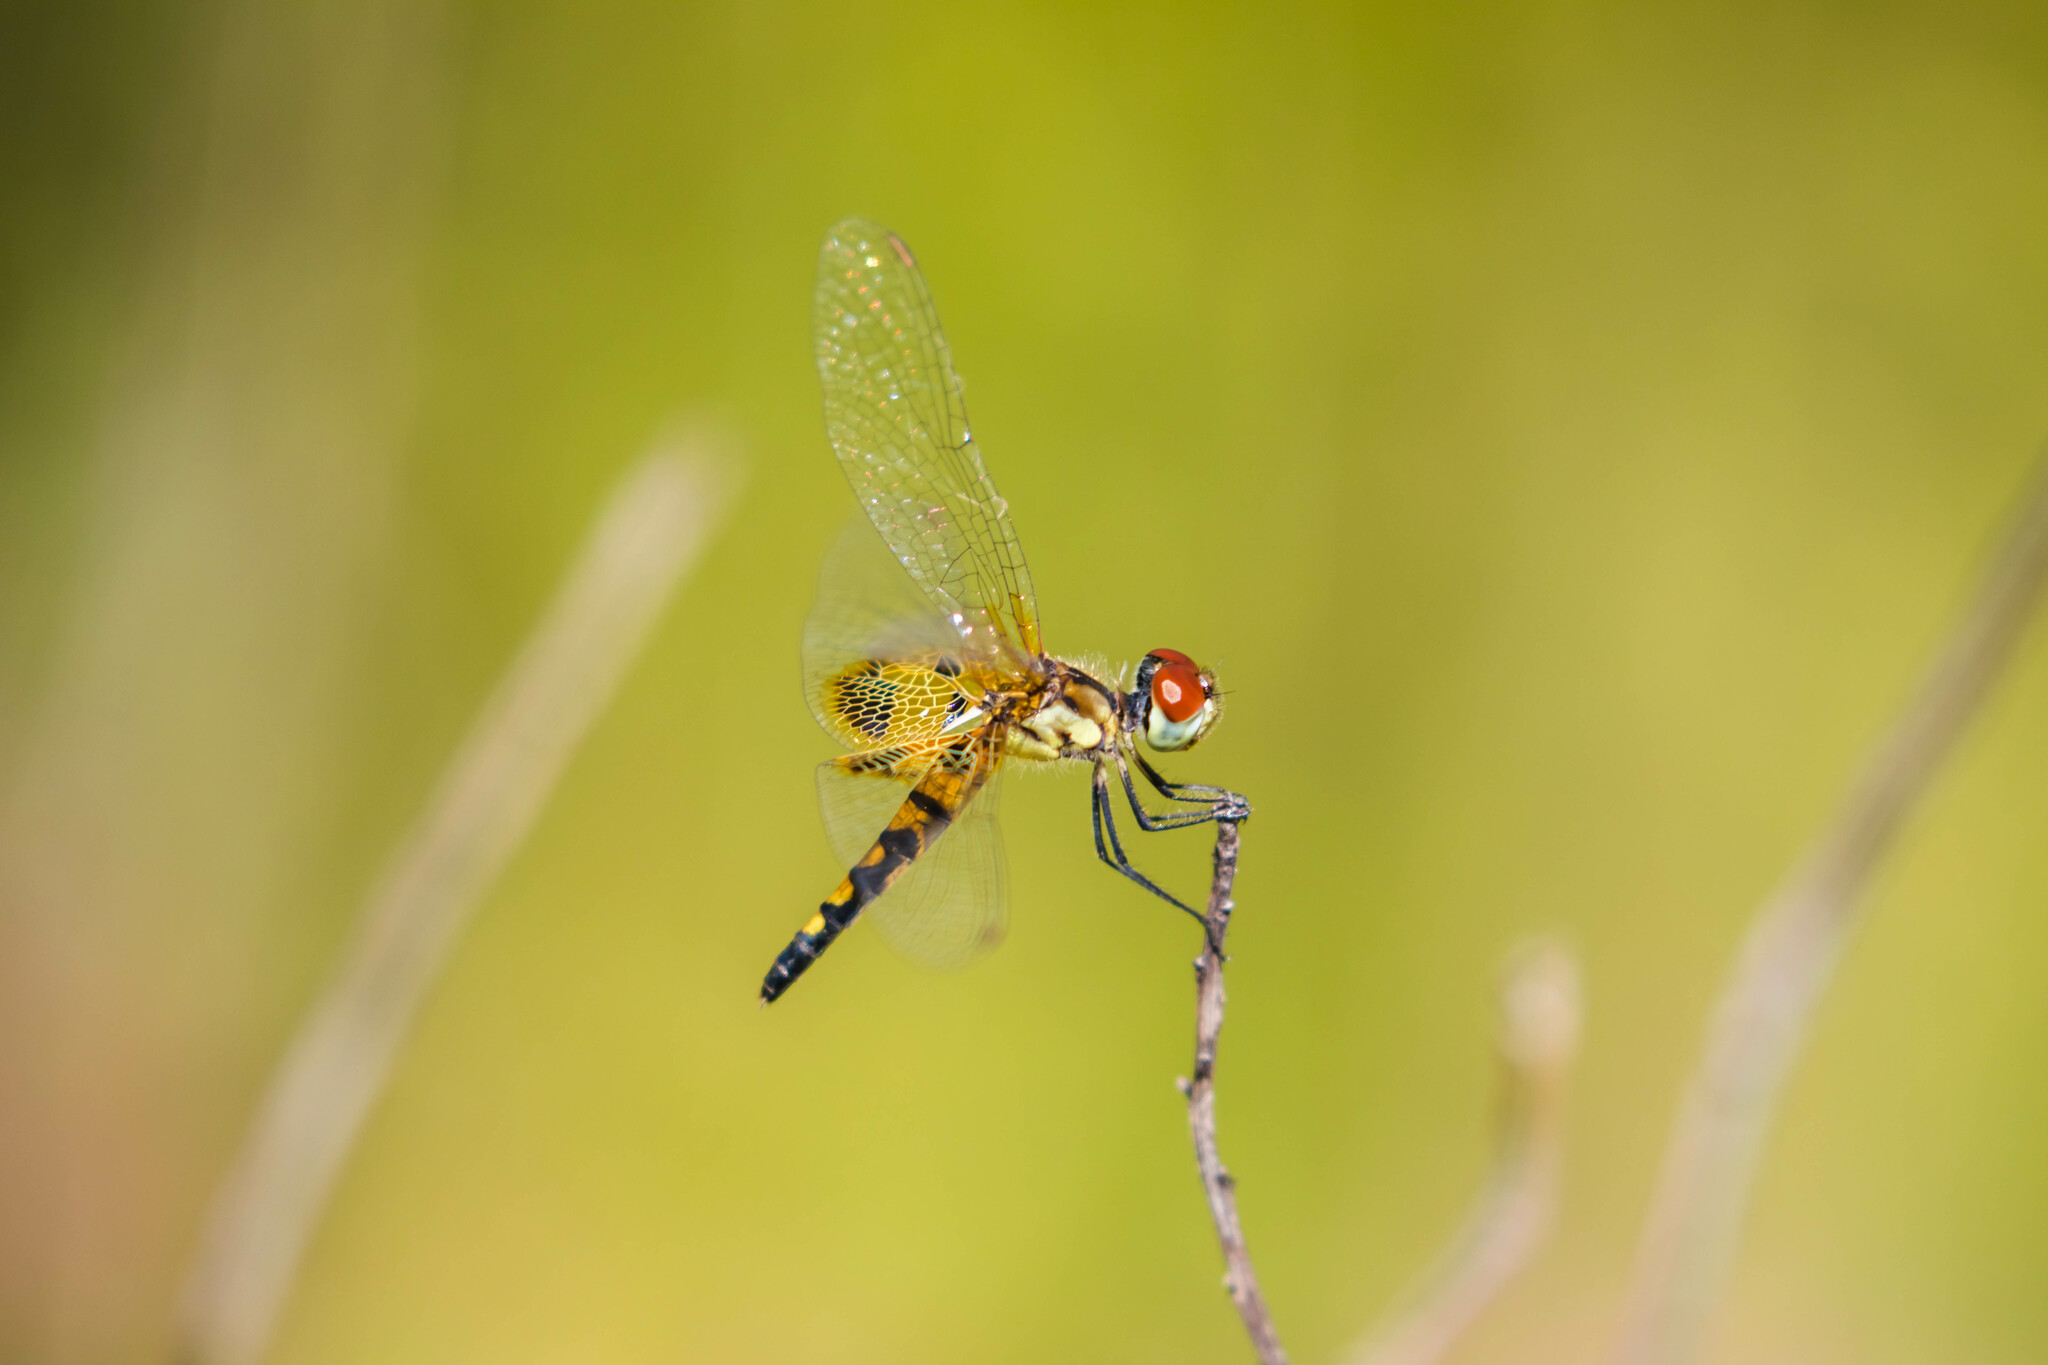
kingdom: Animalia
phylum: Arthropoda
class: Insecta
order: Odonata
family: Libellulidae
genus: Celithemis
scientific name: Celithemis amanda
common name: Amanda's pennant
